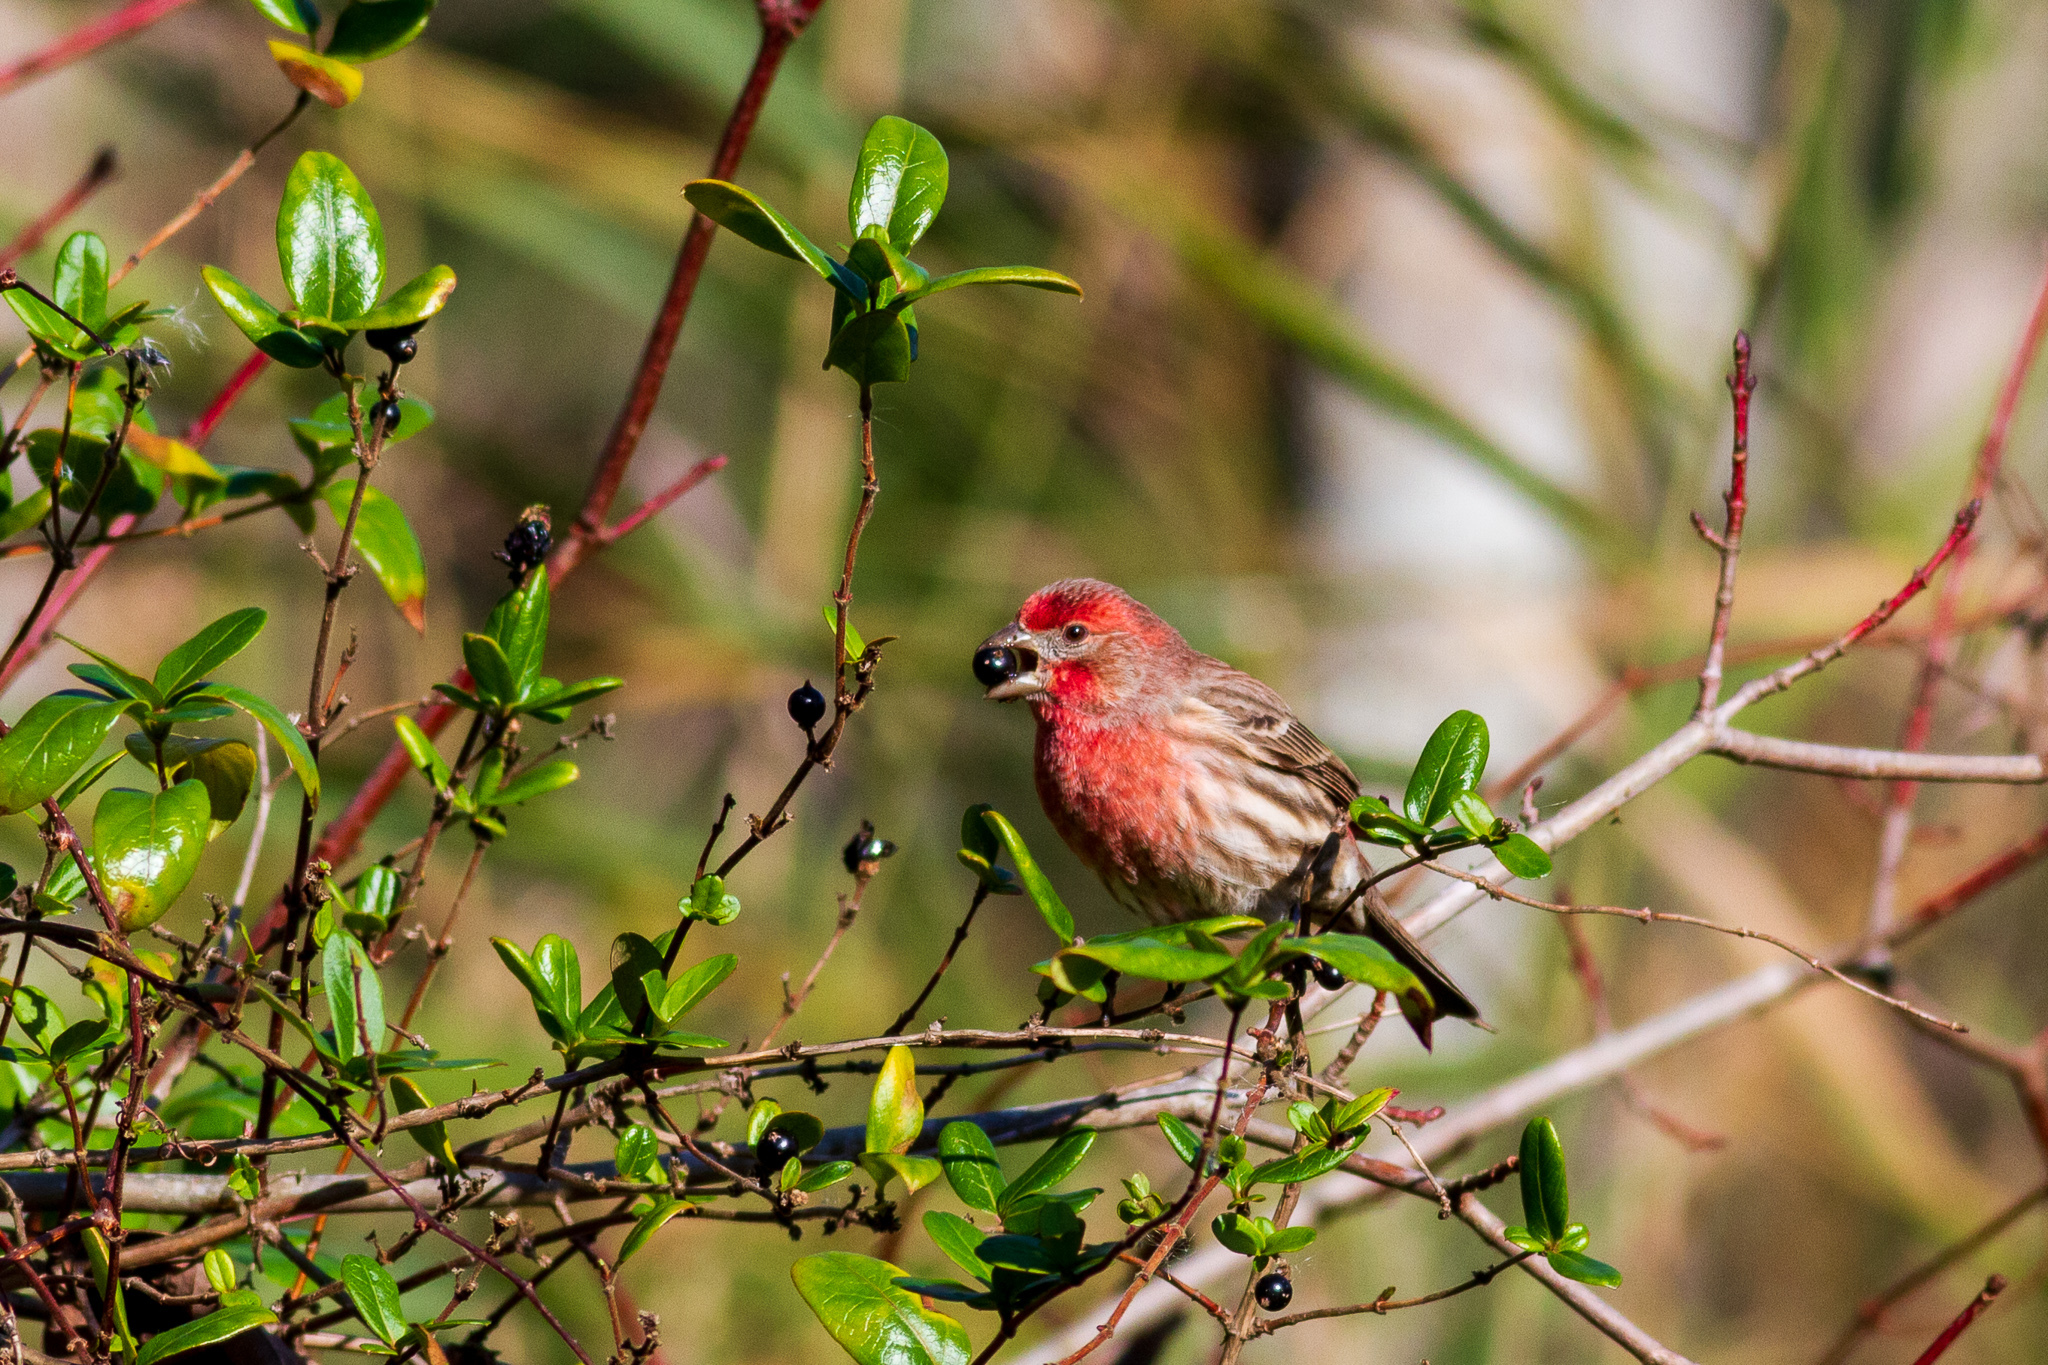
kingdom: Animalia
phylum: Chordata
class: Aves
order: Passeriformes
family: Fringillidae
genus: Haemorhous
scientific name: Haemorhous mexicanus
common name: House finch
